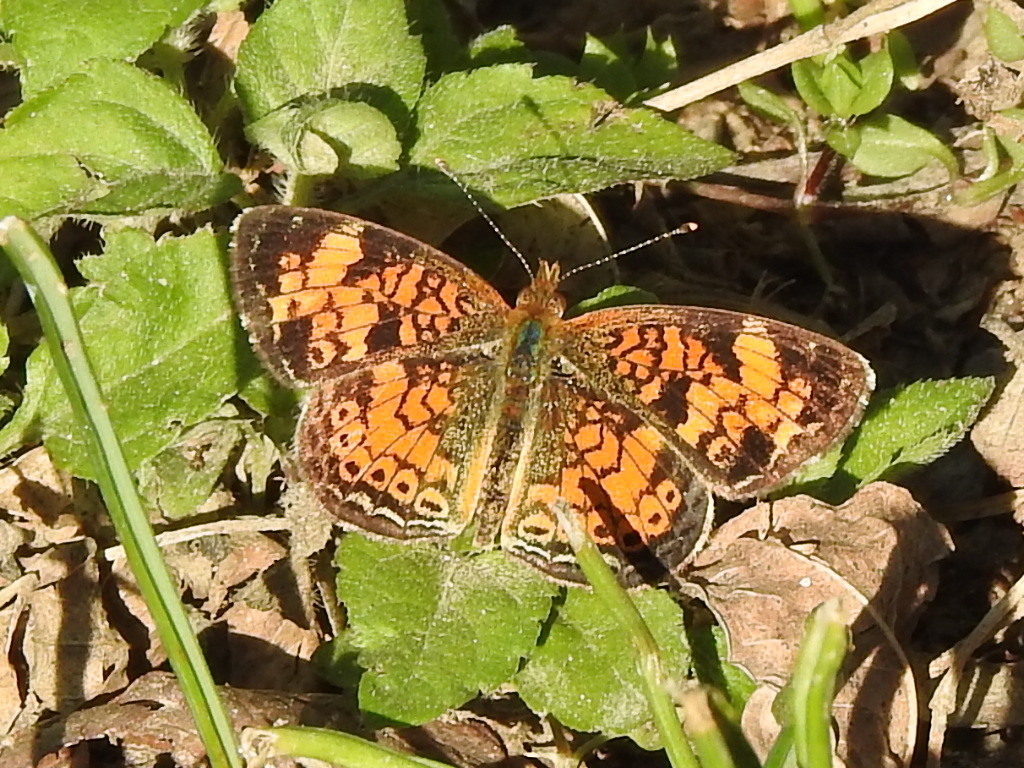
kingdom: Animalia
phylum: Arthropoda
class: Insecta
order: Lepidoptera
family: Nymphalidae
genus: Phyciodes
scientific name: Phyciodes tharos
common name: Pearl crescent
